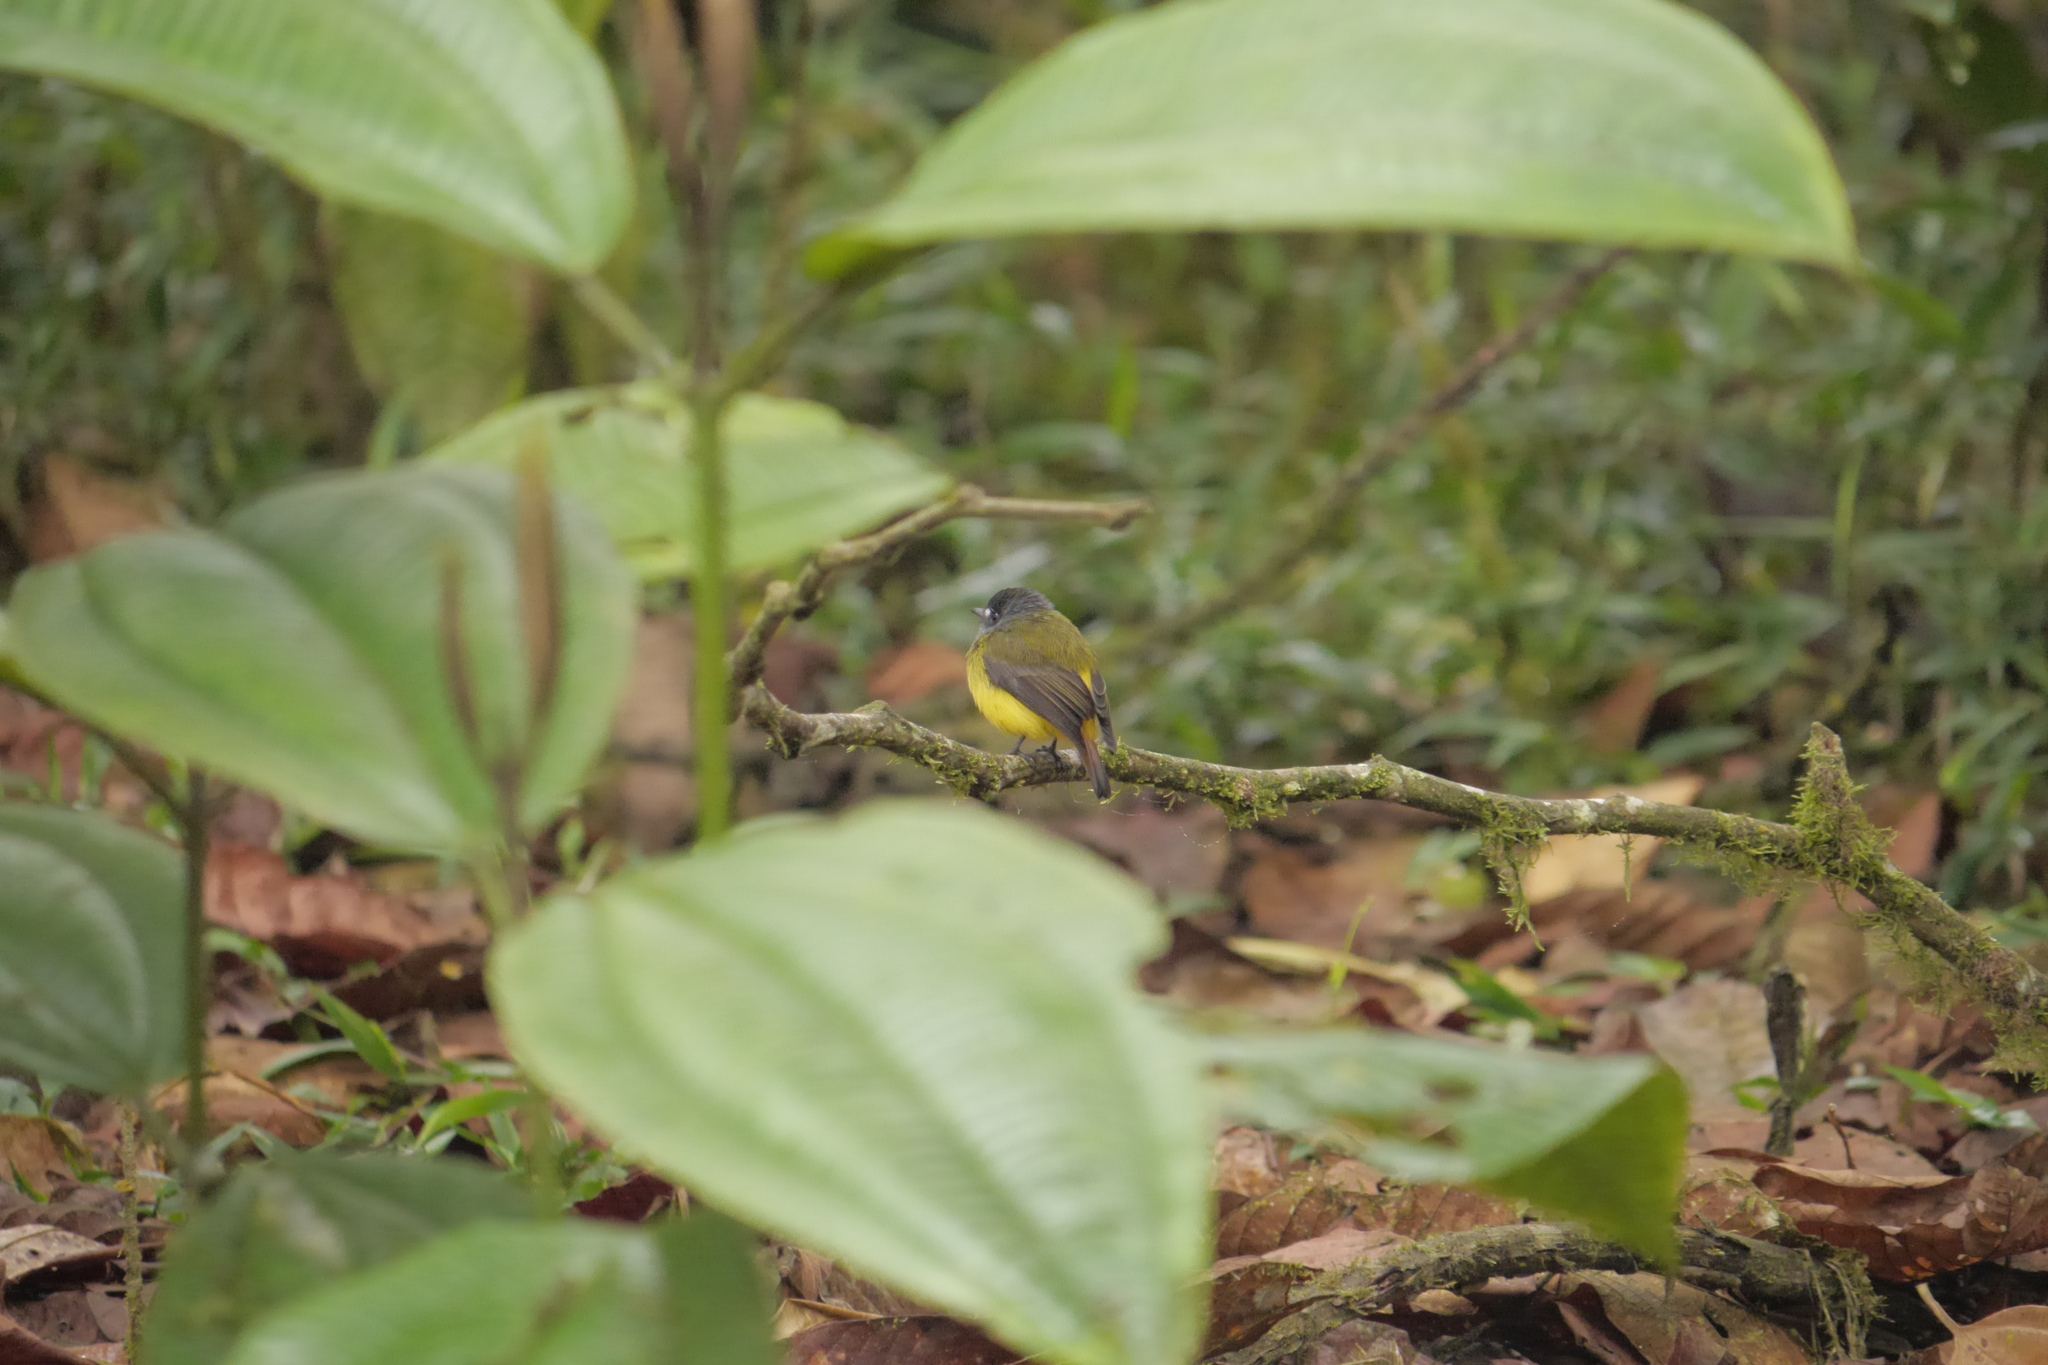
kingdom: Animalia
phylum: Chordata
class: Aves
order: Passeriformes
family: Tyrannidae
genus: Myiotriccus
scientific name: Myiotriccus ornatus
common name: Ornate flycatcher
